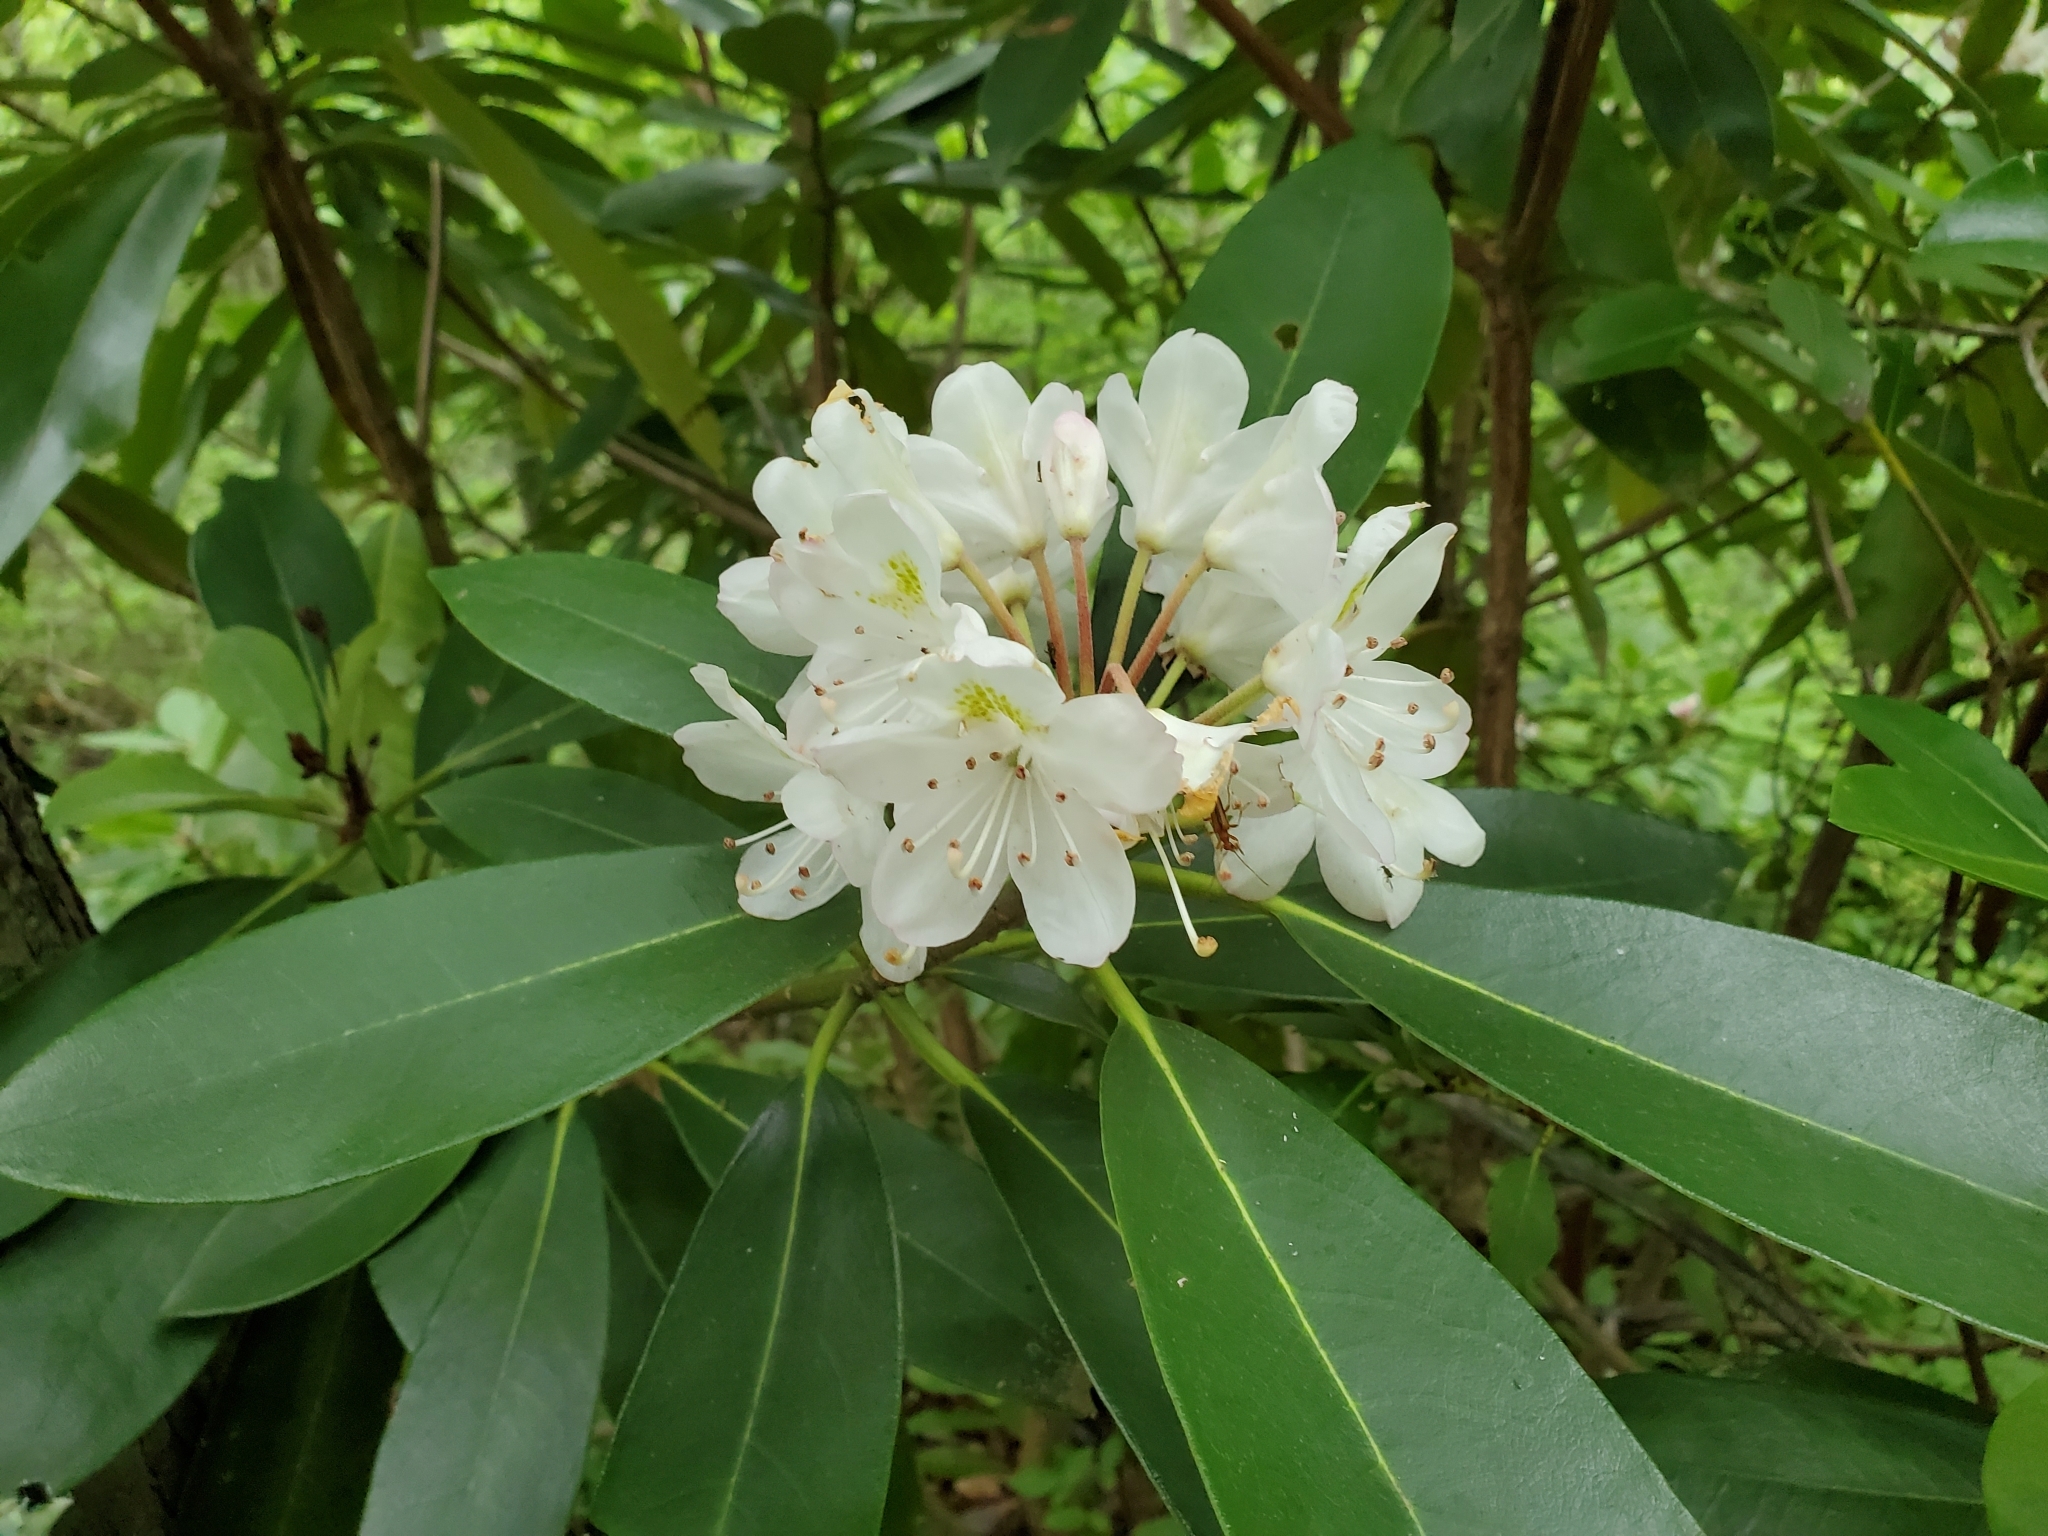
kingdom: Plantae
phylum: Tracheophyta
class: Magnoliopsida
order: Ericales
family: Ericaceae
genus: Rhododendron
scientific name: Rhododendron maximum
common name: Great rhododendron
